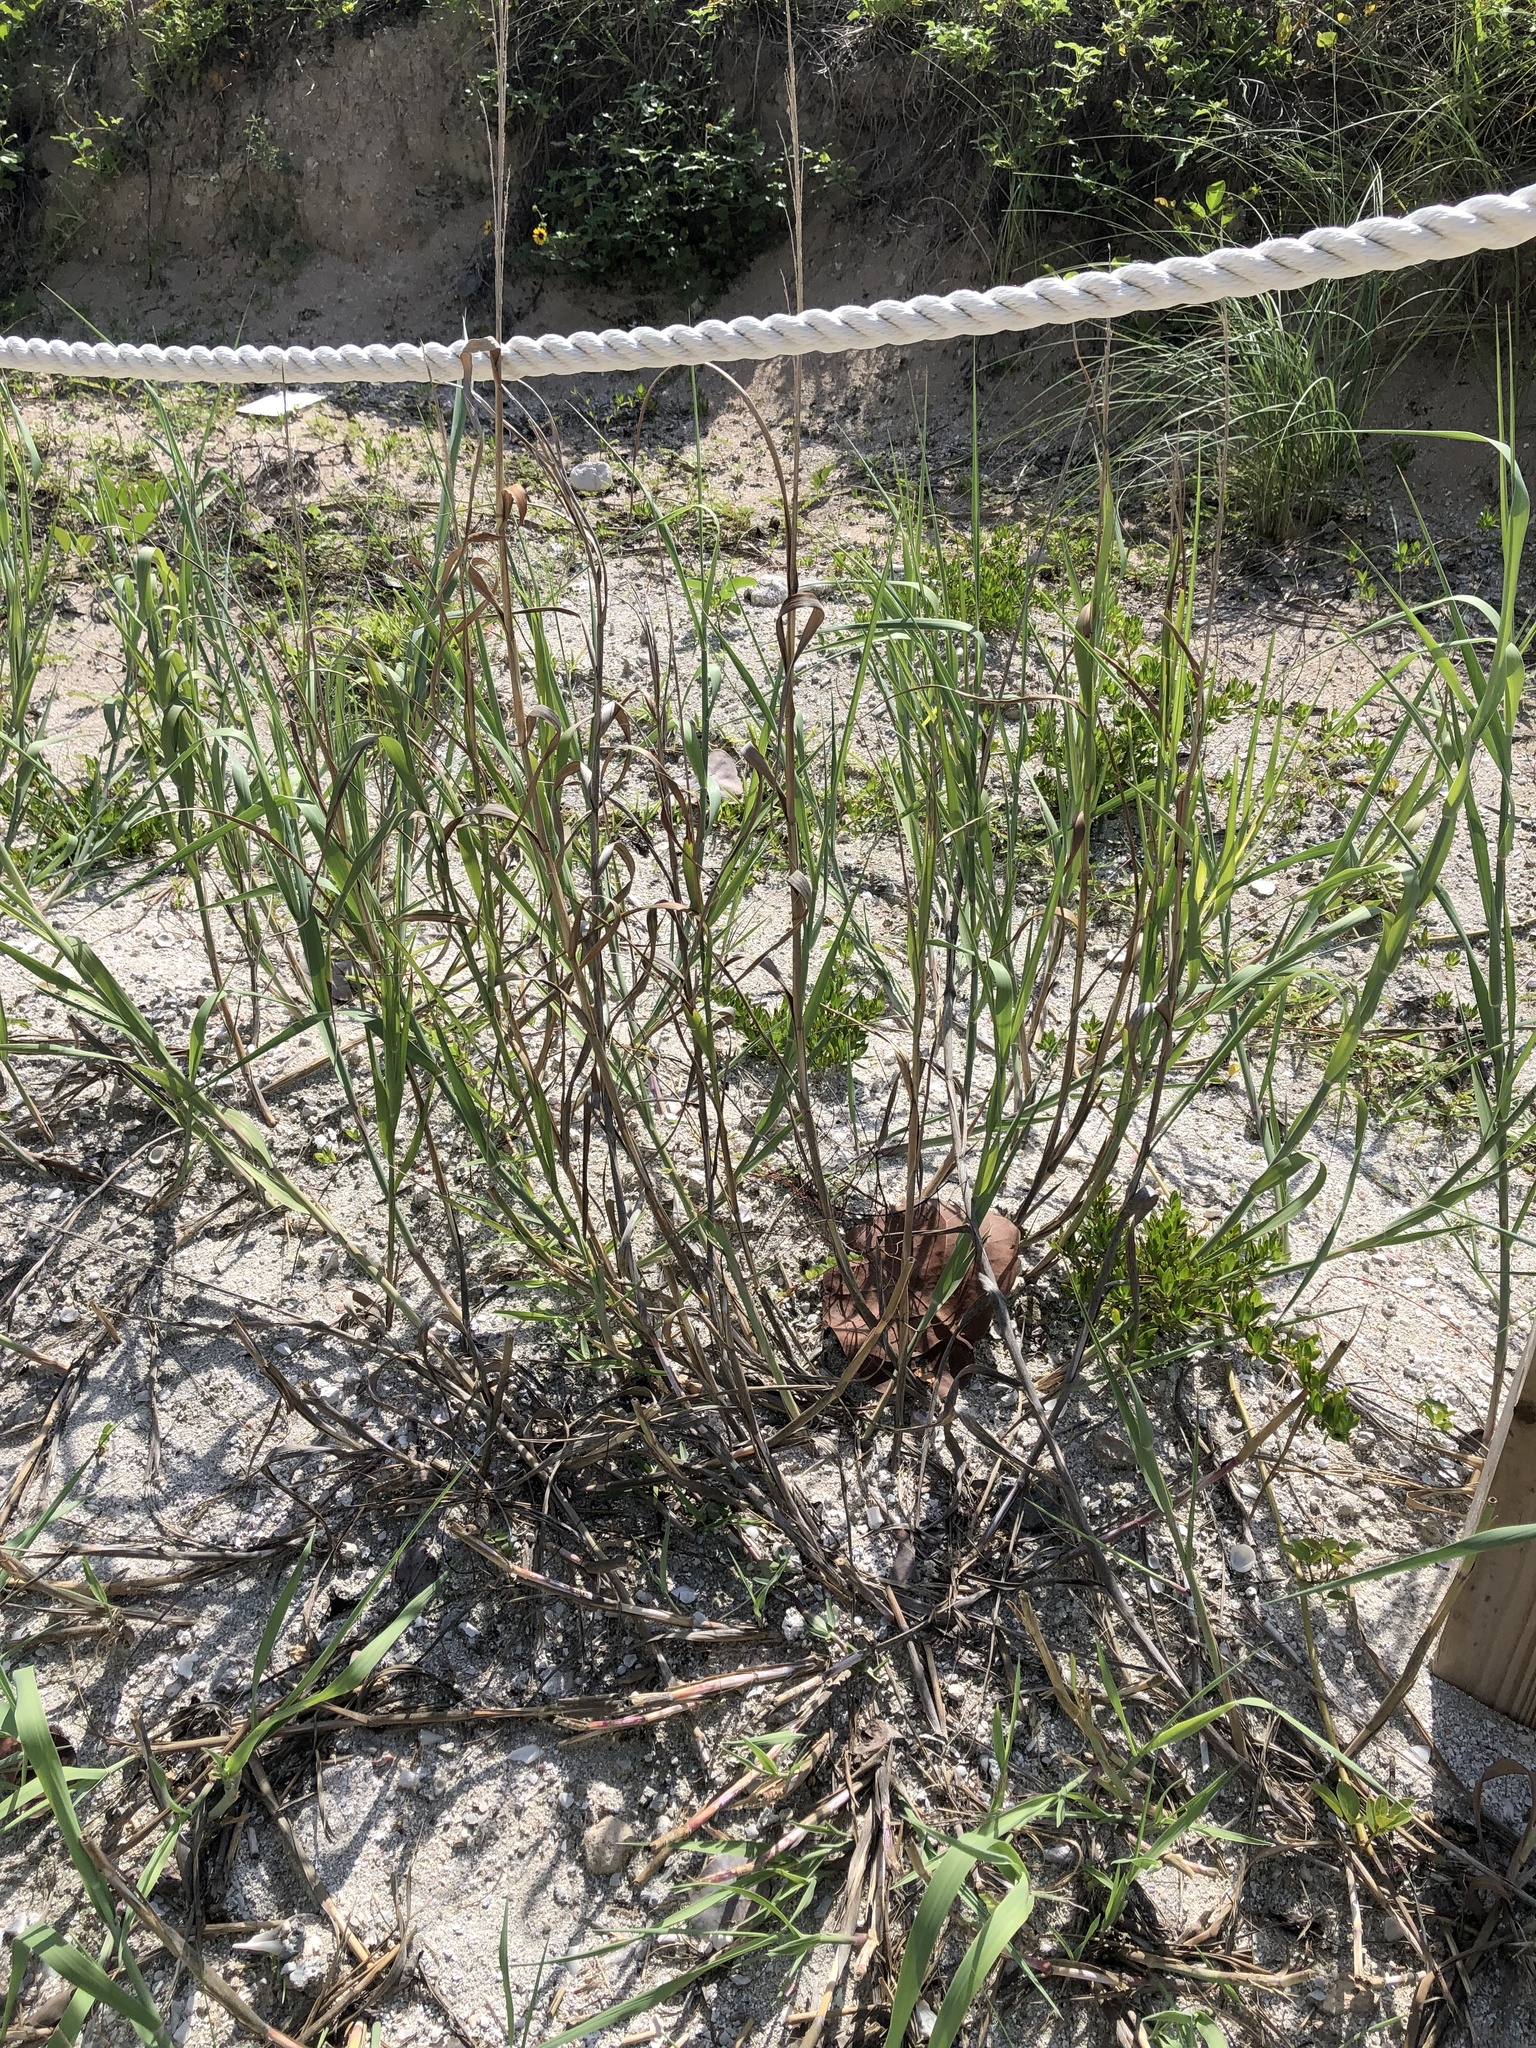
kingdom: Plantae
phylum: Tracheophyta
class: Liliopsida
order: Poales
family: Poaceae
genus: Panicum
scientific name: Panicum amarum
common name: Bitter panicum
